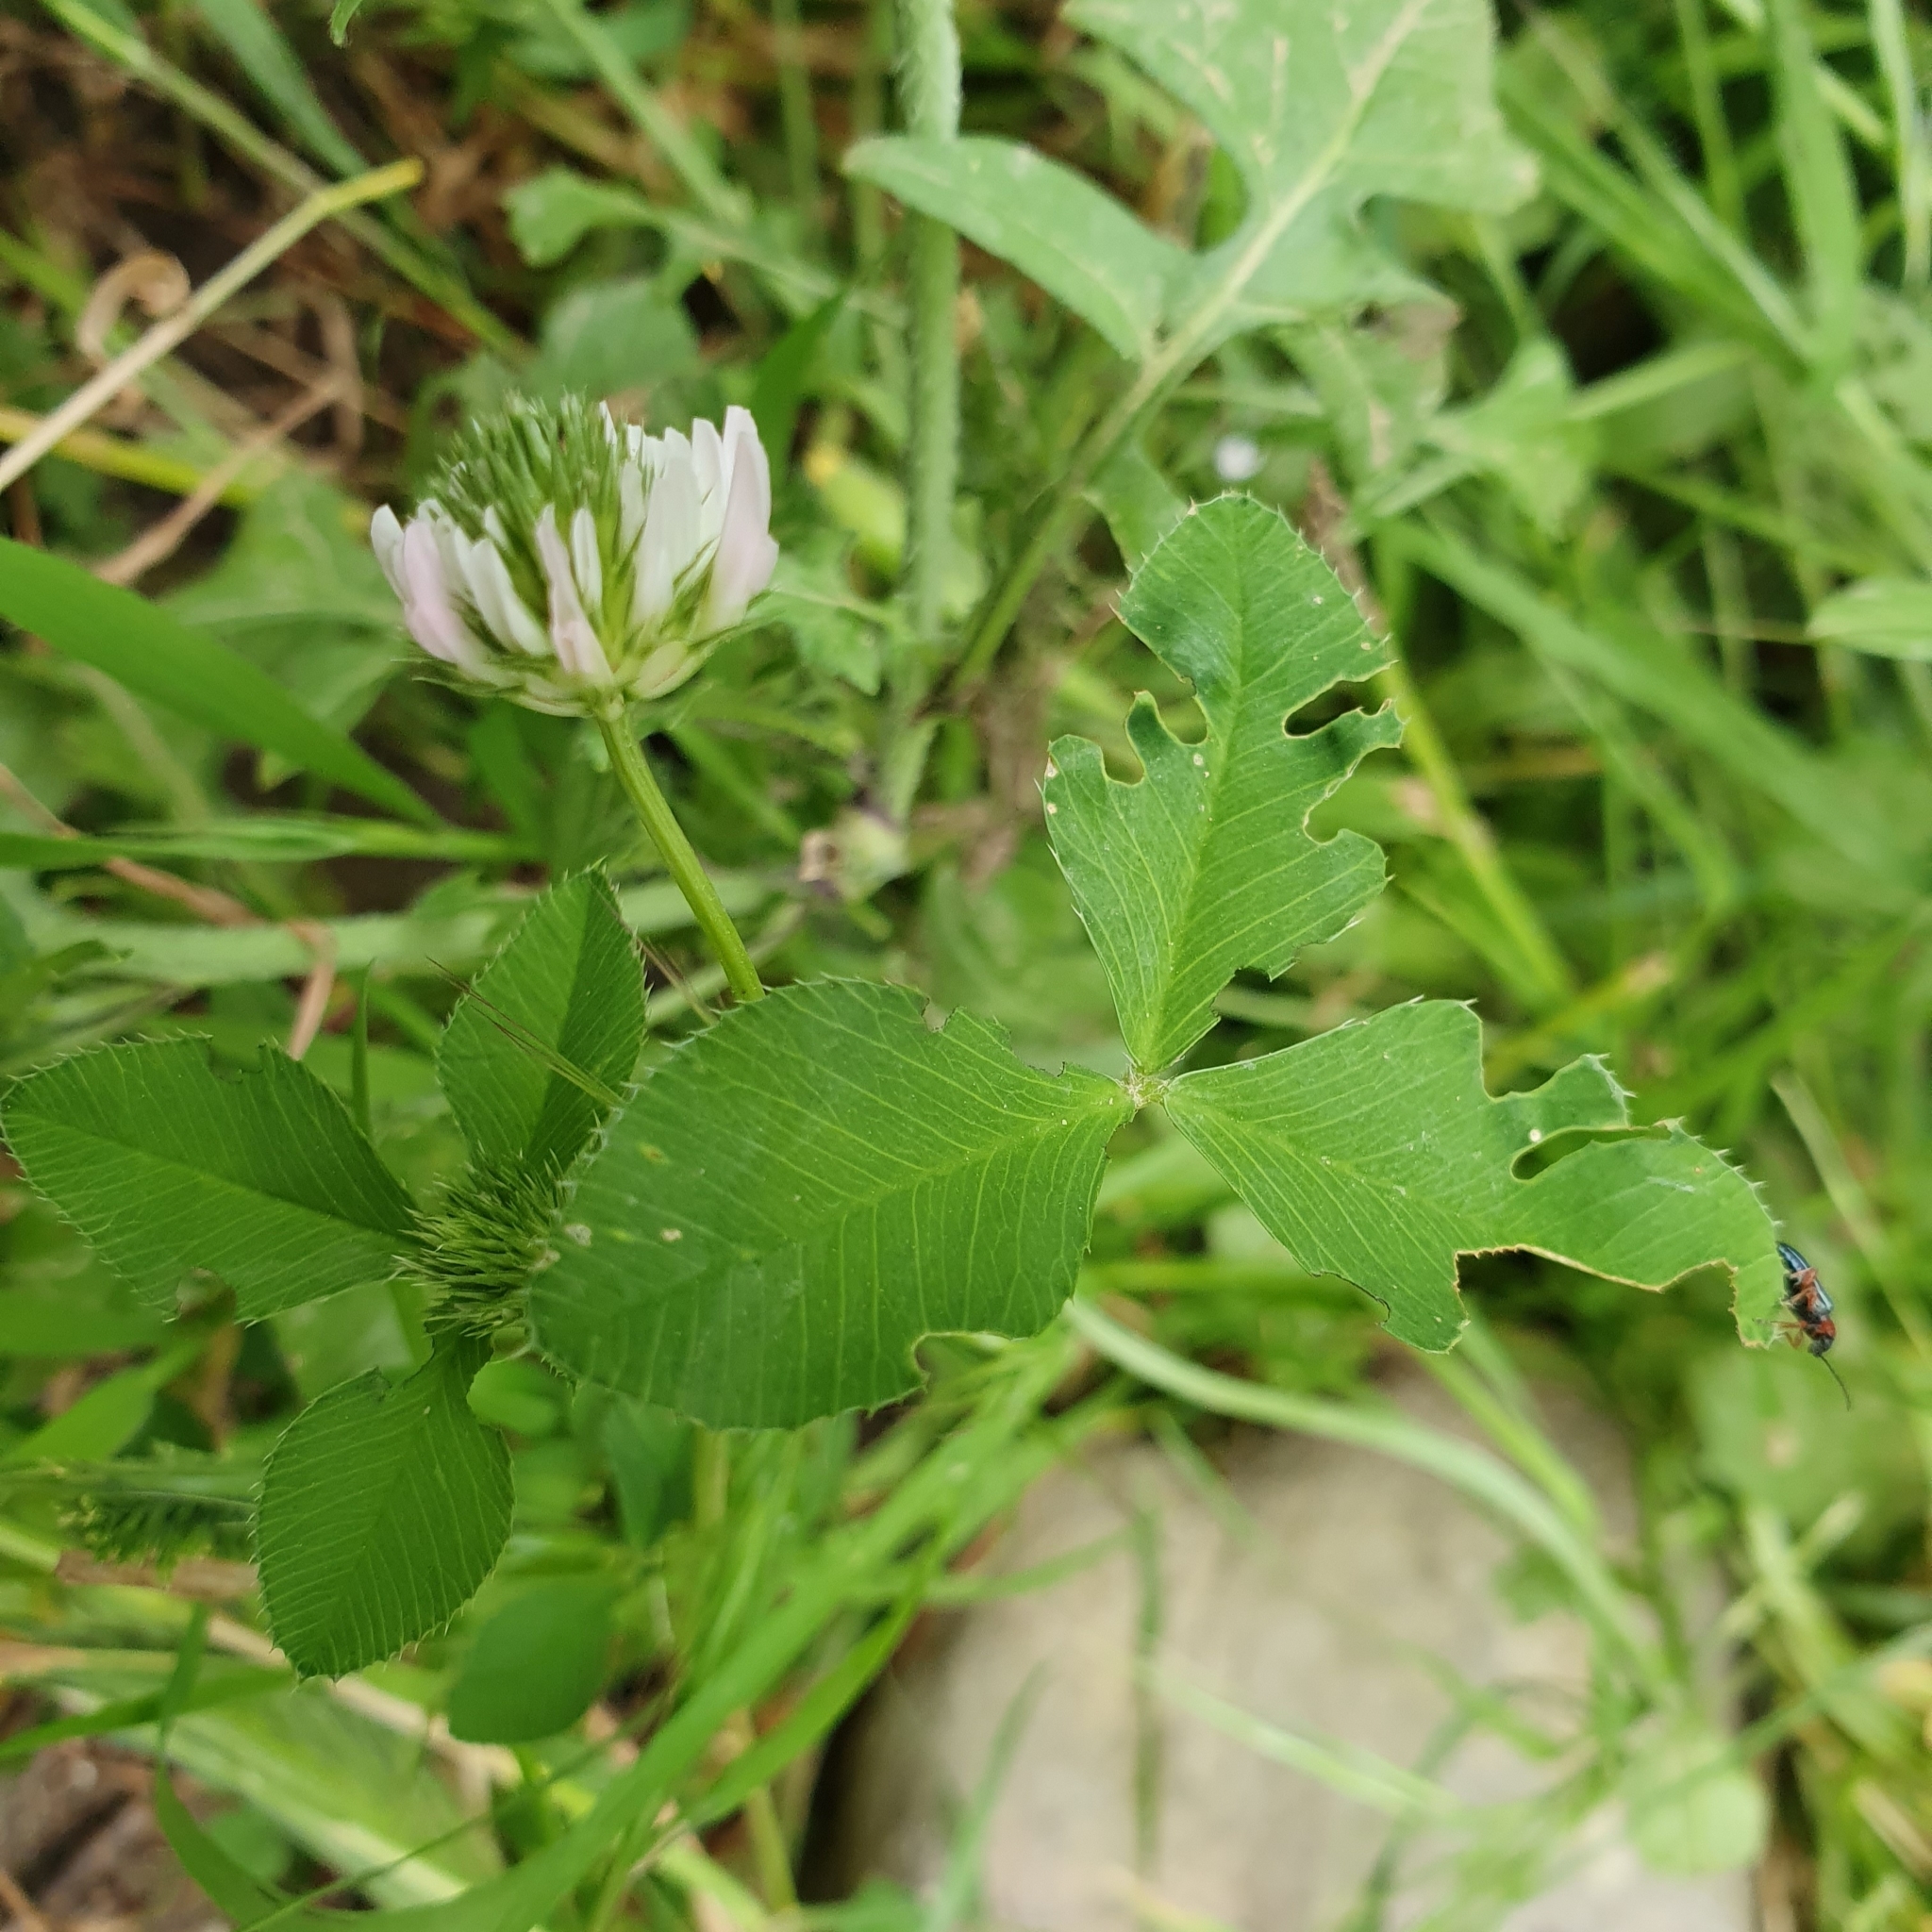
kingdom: Plantae
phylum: Tracheophyta
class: Magnoliopsida
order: Fabales
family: Fabaceae
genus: Trifolium
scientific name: Trifolium hybridum
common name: Alsike clover
